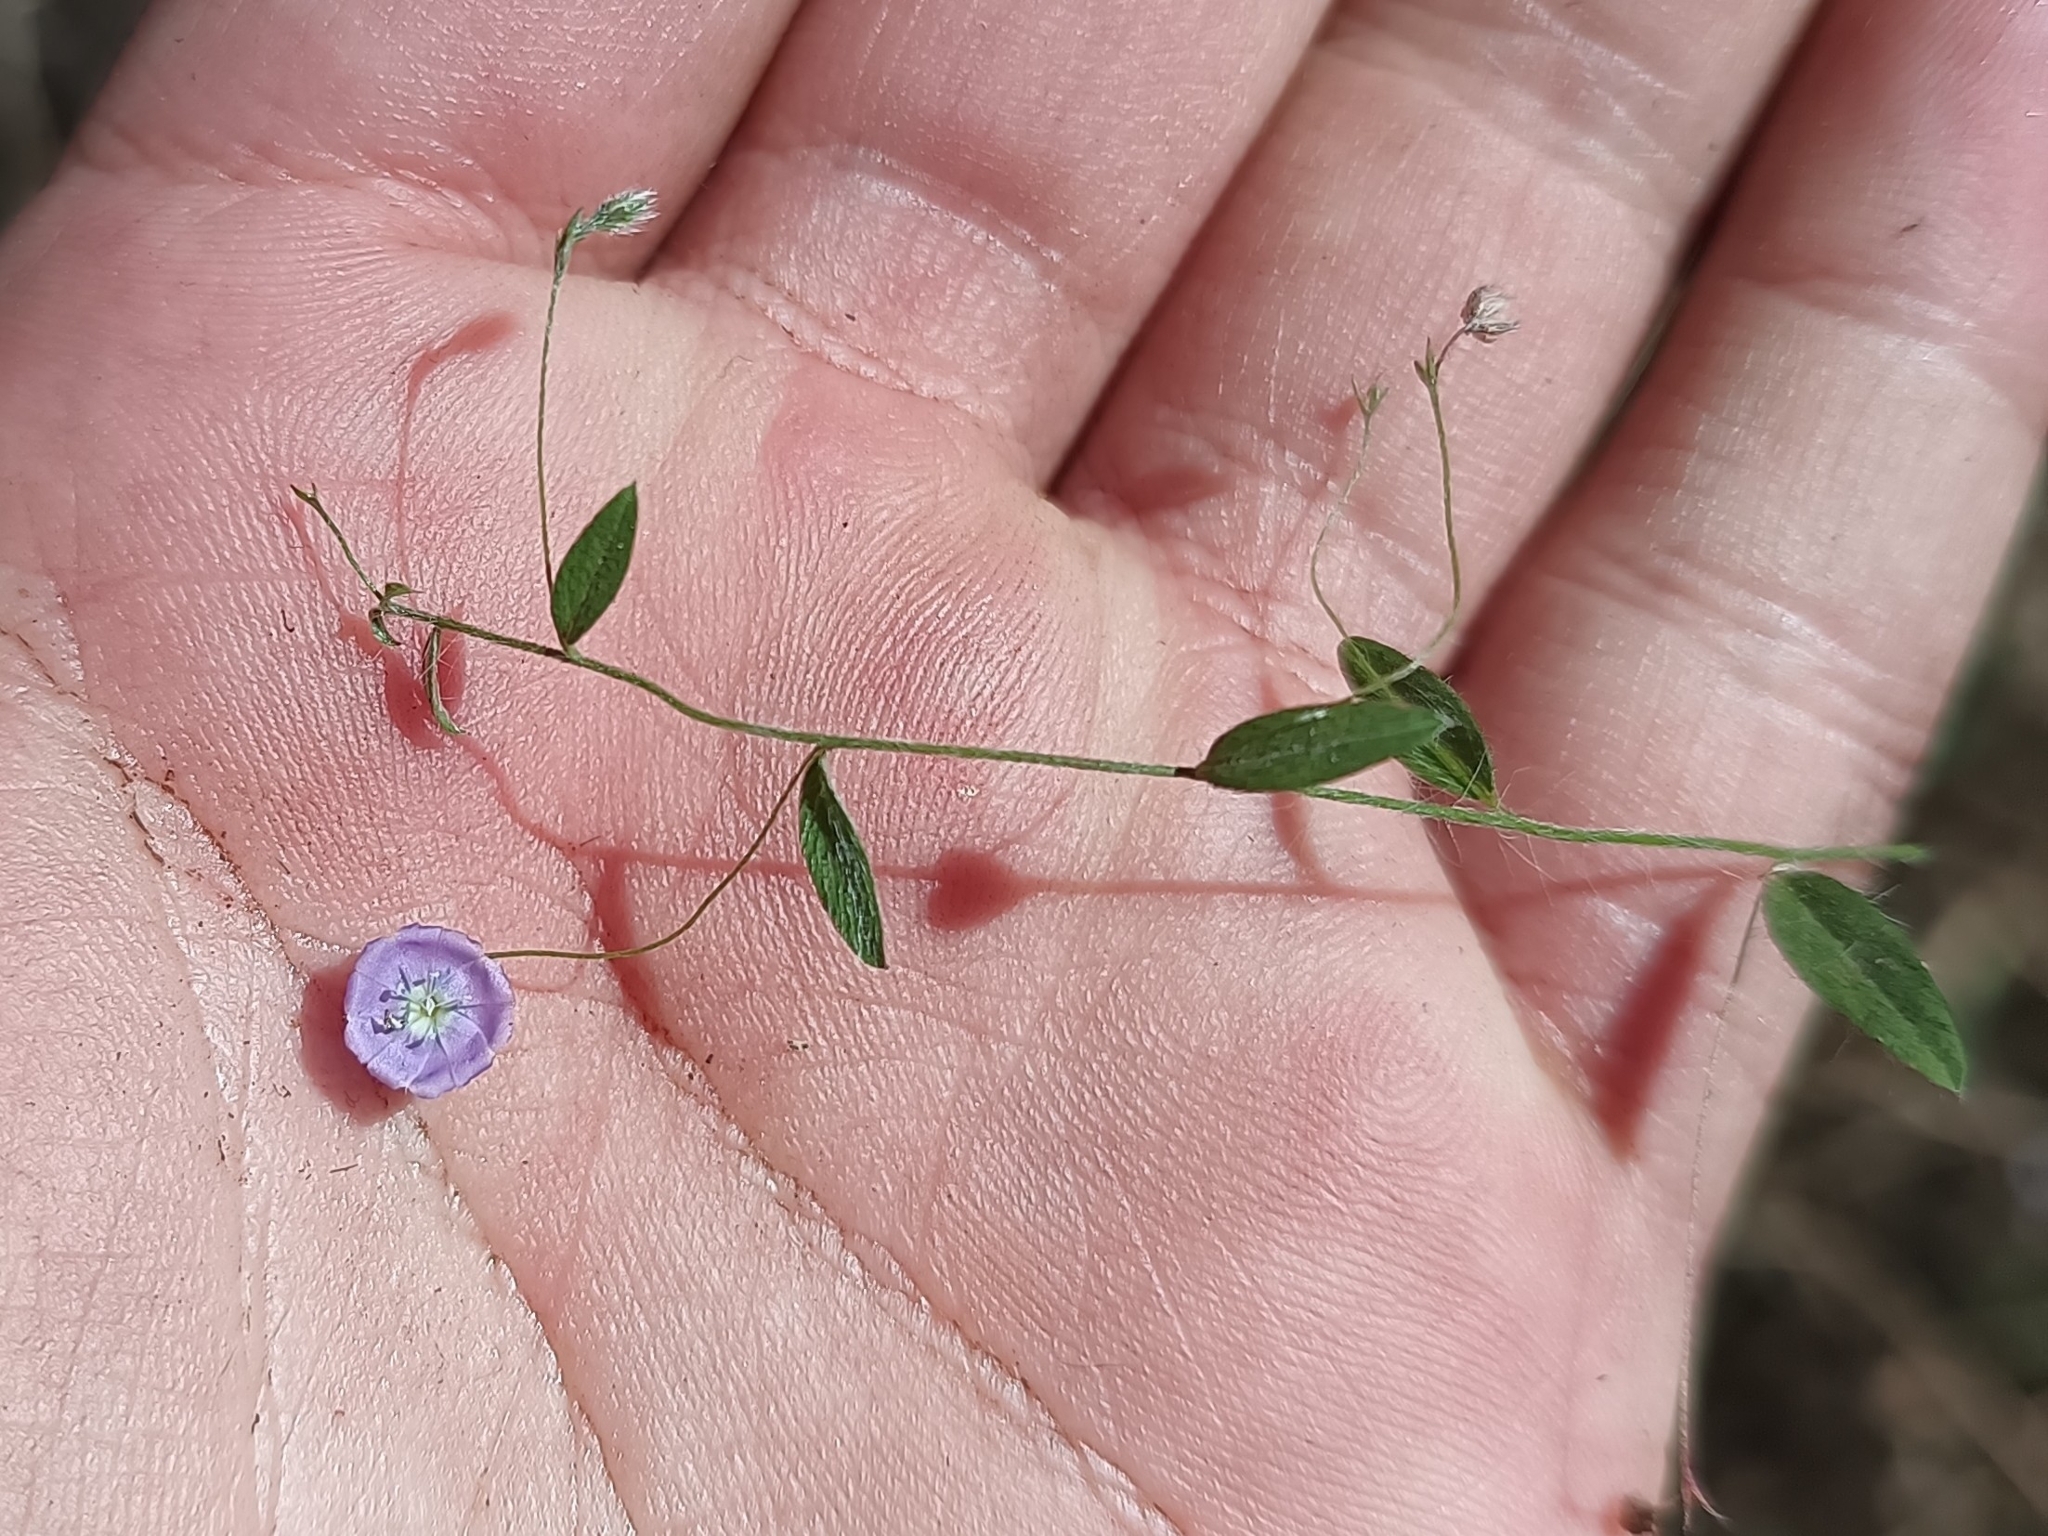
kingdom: Plantae
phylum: Tracheophyta
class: Magnoliopsida
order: Solanales
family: Convolvulaceae
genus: Evolvulus
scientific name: Evolvulus alsinoides
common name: Slender dwarf morning-glory
